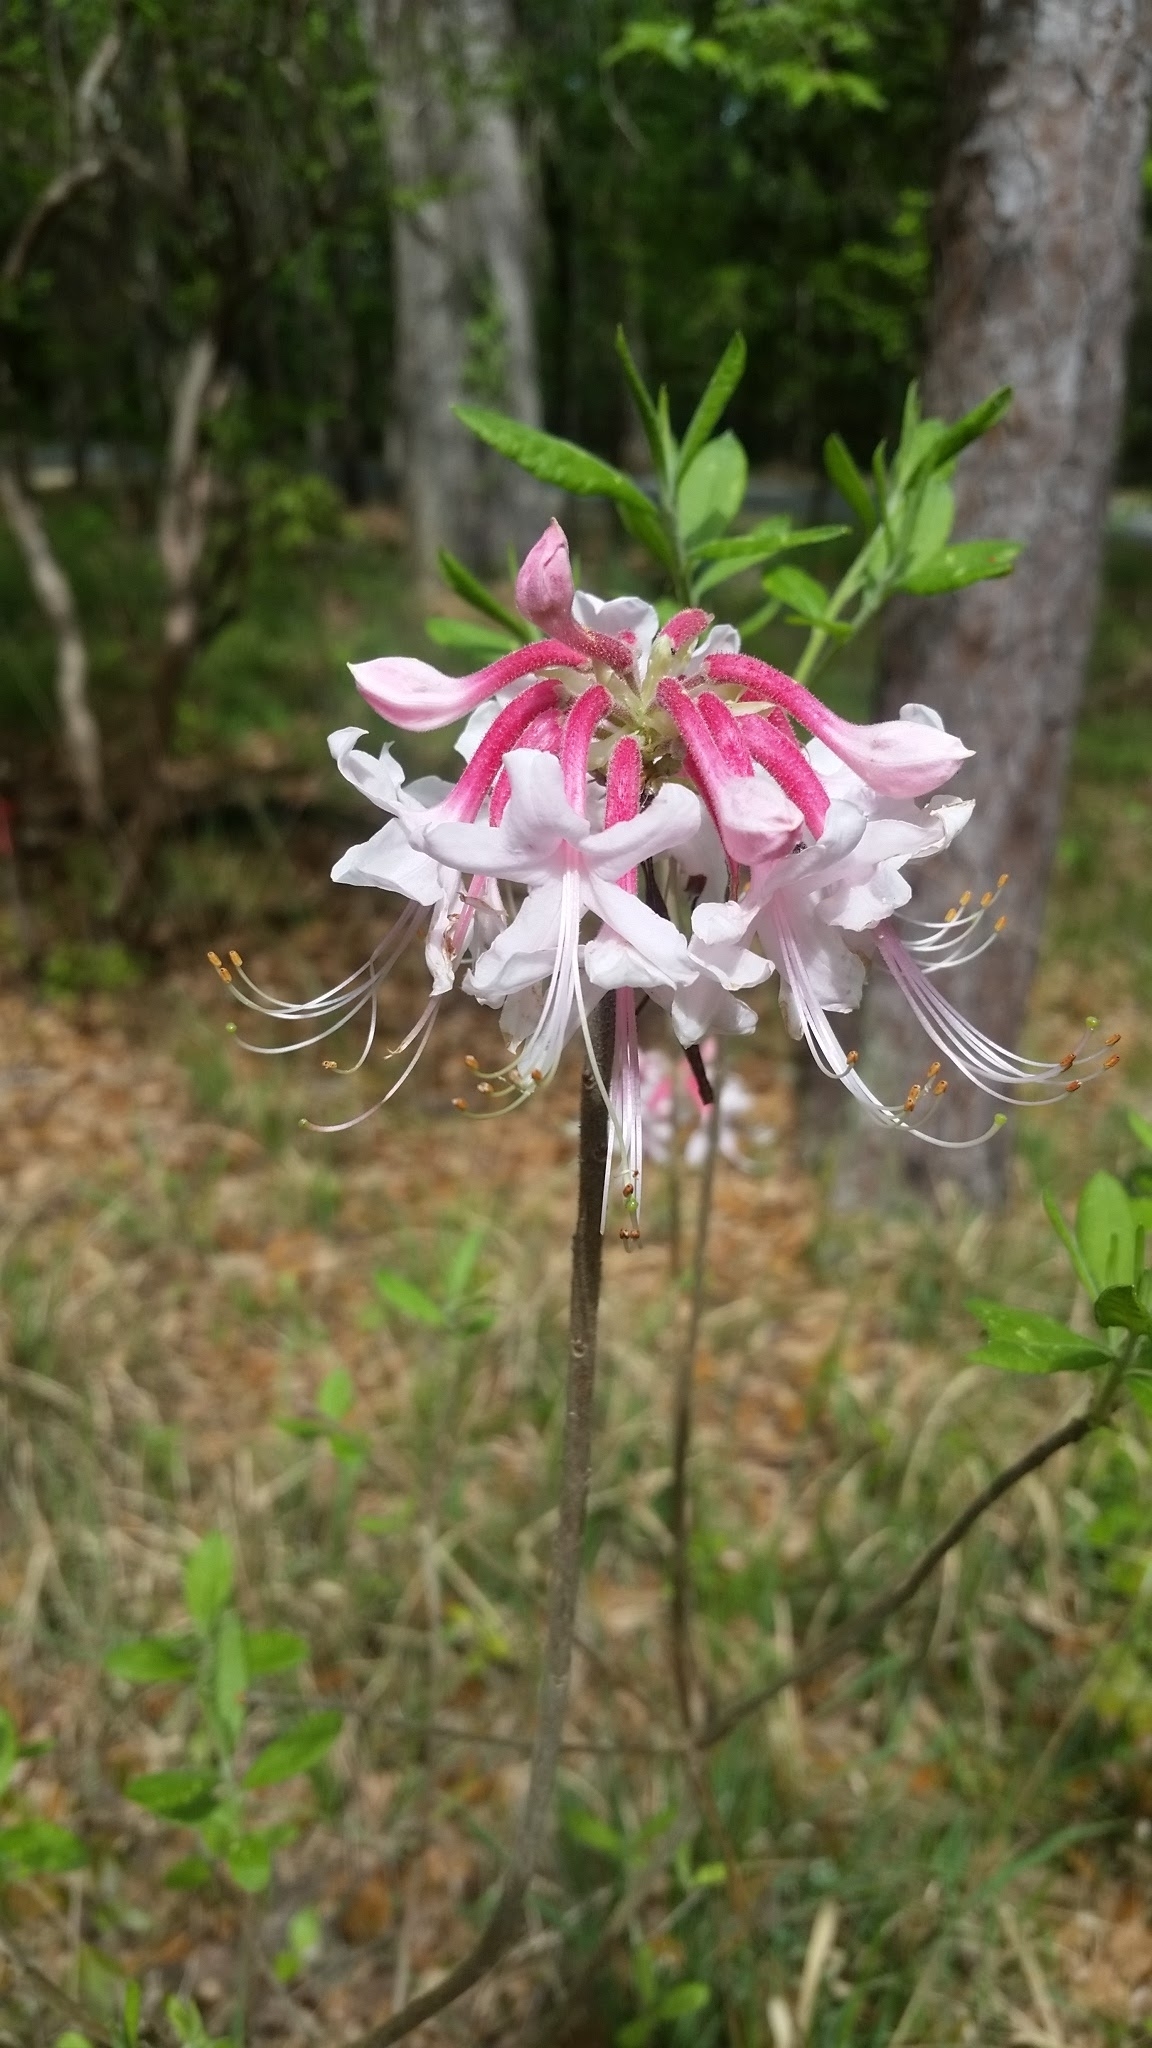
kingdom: Plantae
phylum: Tracheophyta
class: Magnoliopsida
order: Ericales
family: Ericaceae
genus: Rhododendron
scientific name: Rhododendron canescens
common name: Mountain azalea
